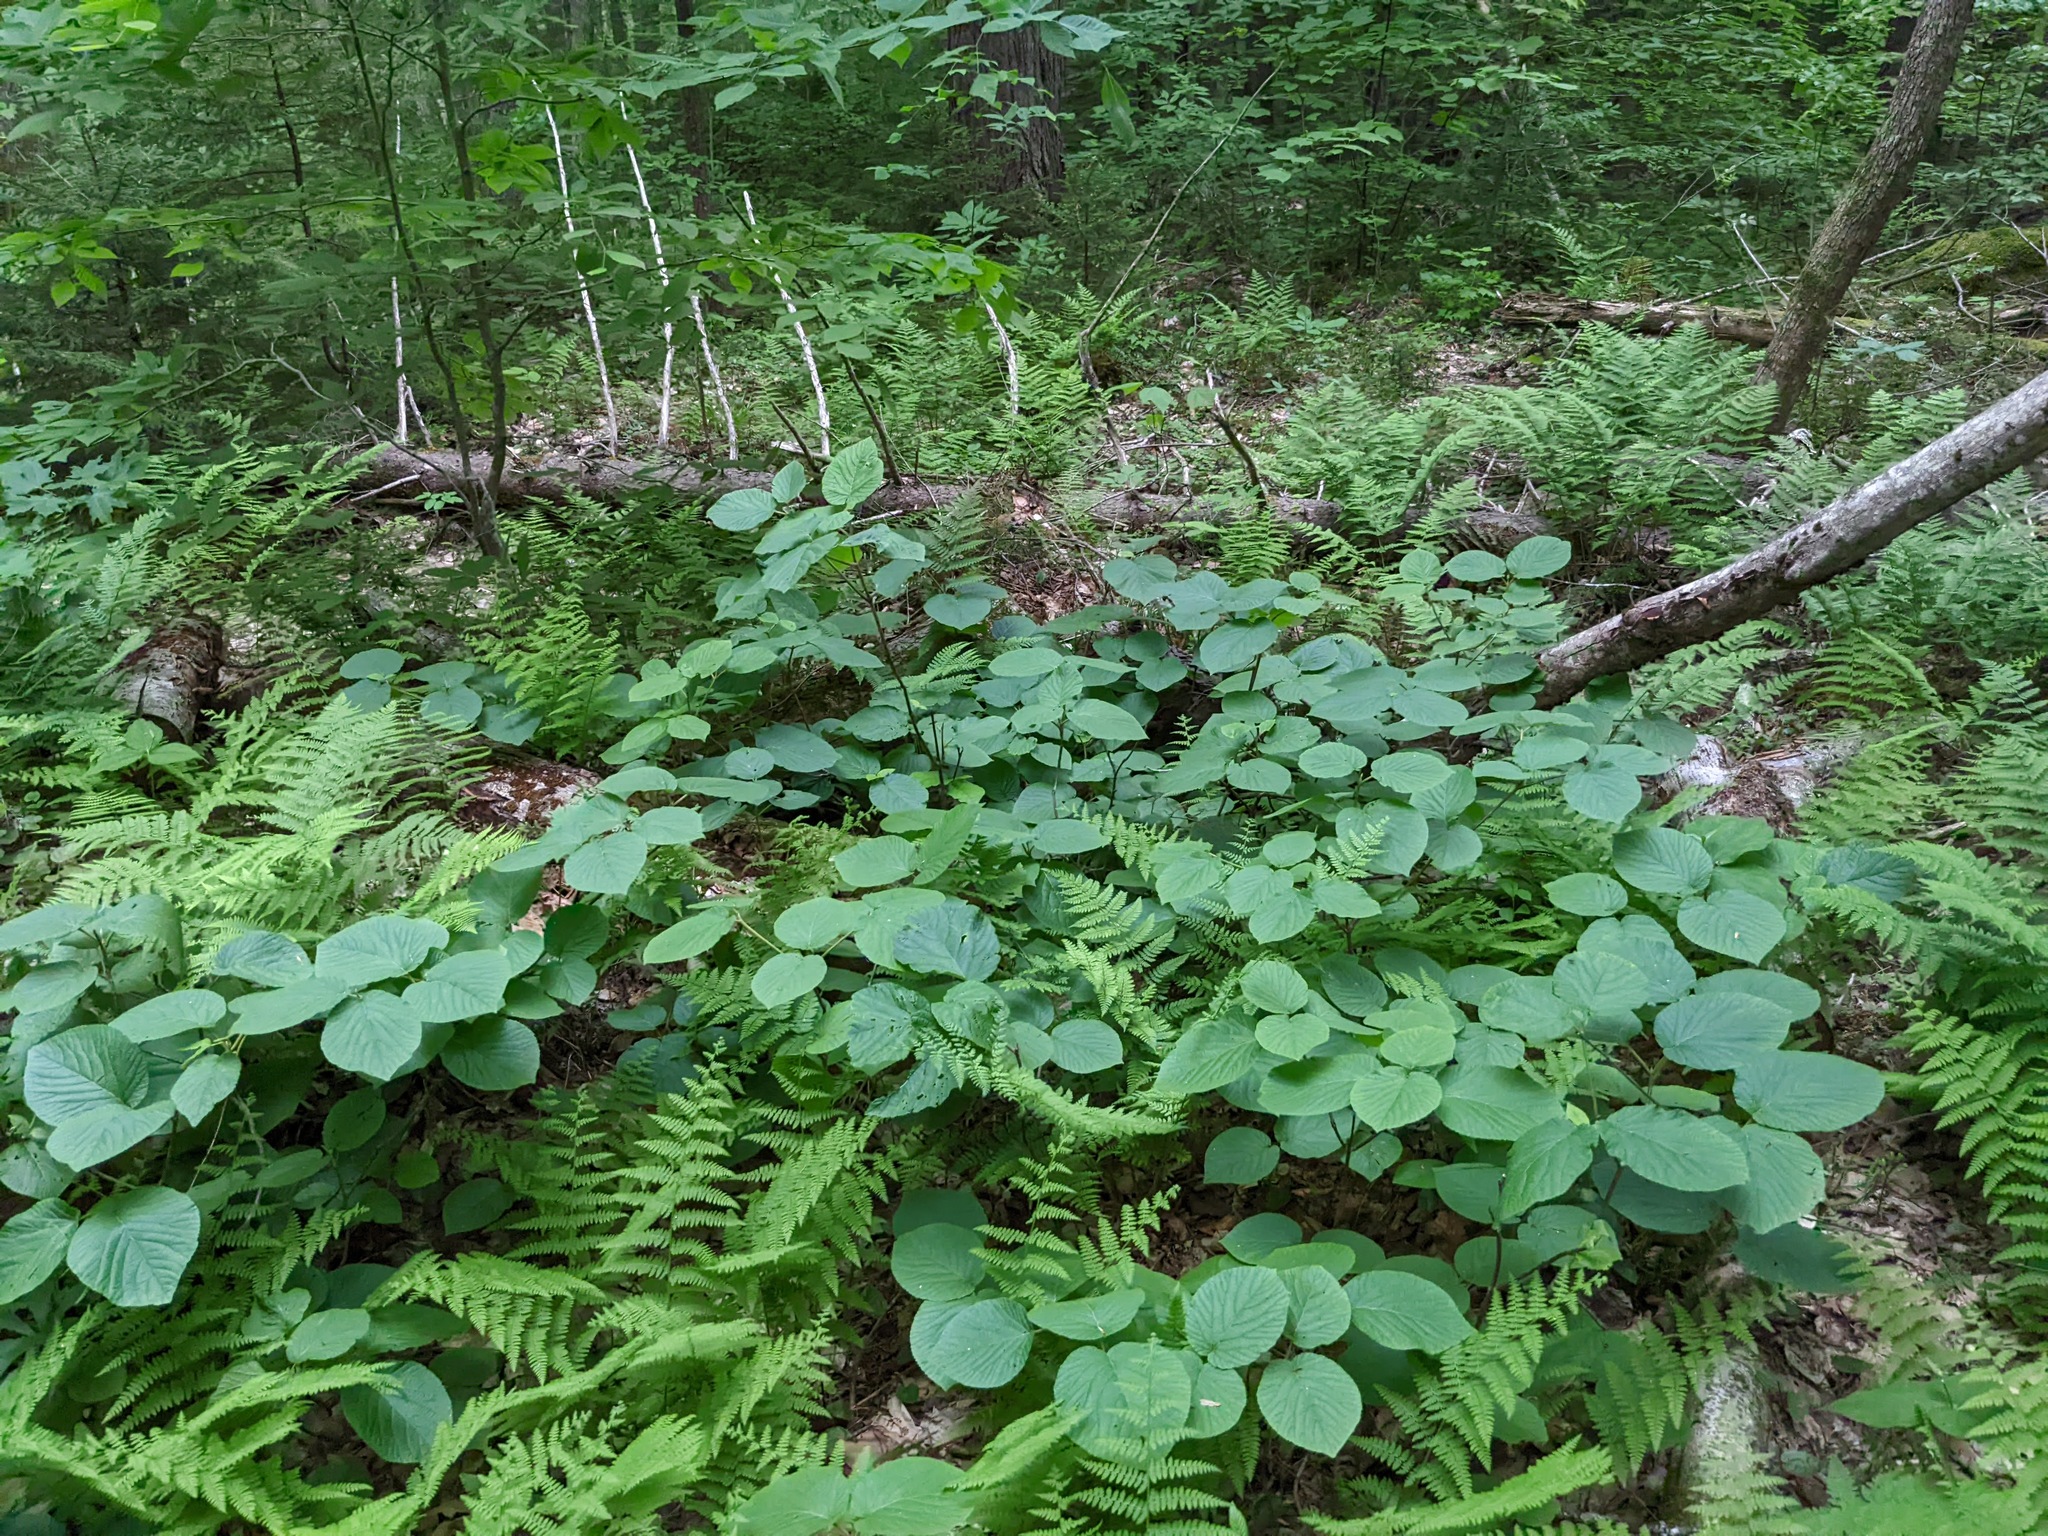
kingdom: Plantae
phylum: Tracheophyta
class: Magnoliopsida
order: Dipsacales
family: Viburnaceae
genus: Viburnum
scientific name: Viburnum lantanoides
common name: Hobblebush
